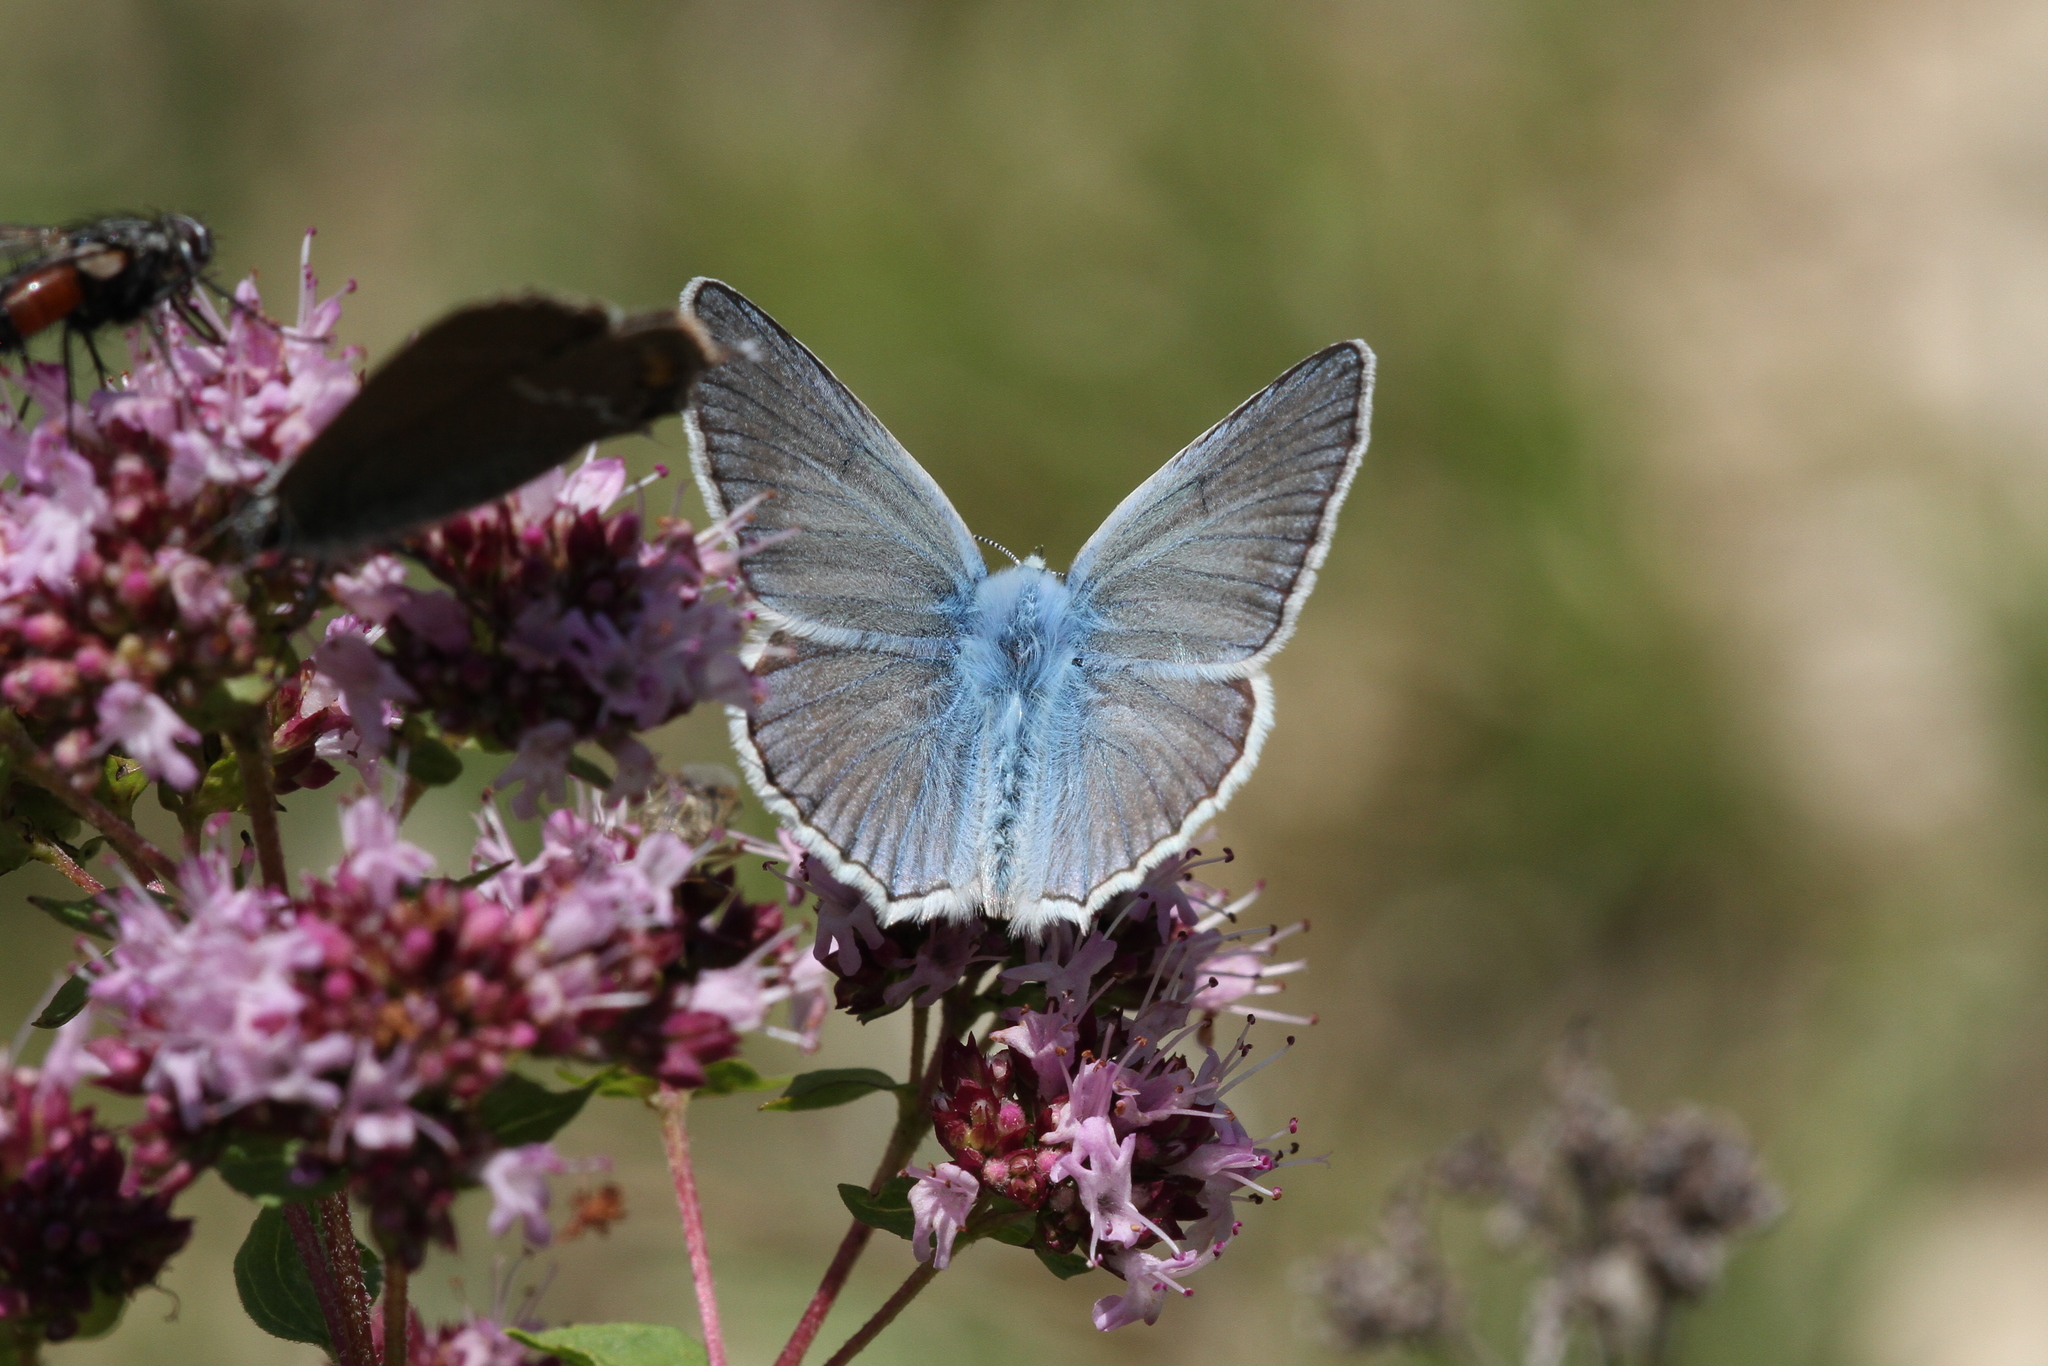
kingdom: Animalia
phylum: Arthropoda
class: Insecta
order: Lepidoptera
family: Lycaenidae
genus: Polyommatus
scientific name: Polyommatus daphnis
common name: Meleager's blue
